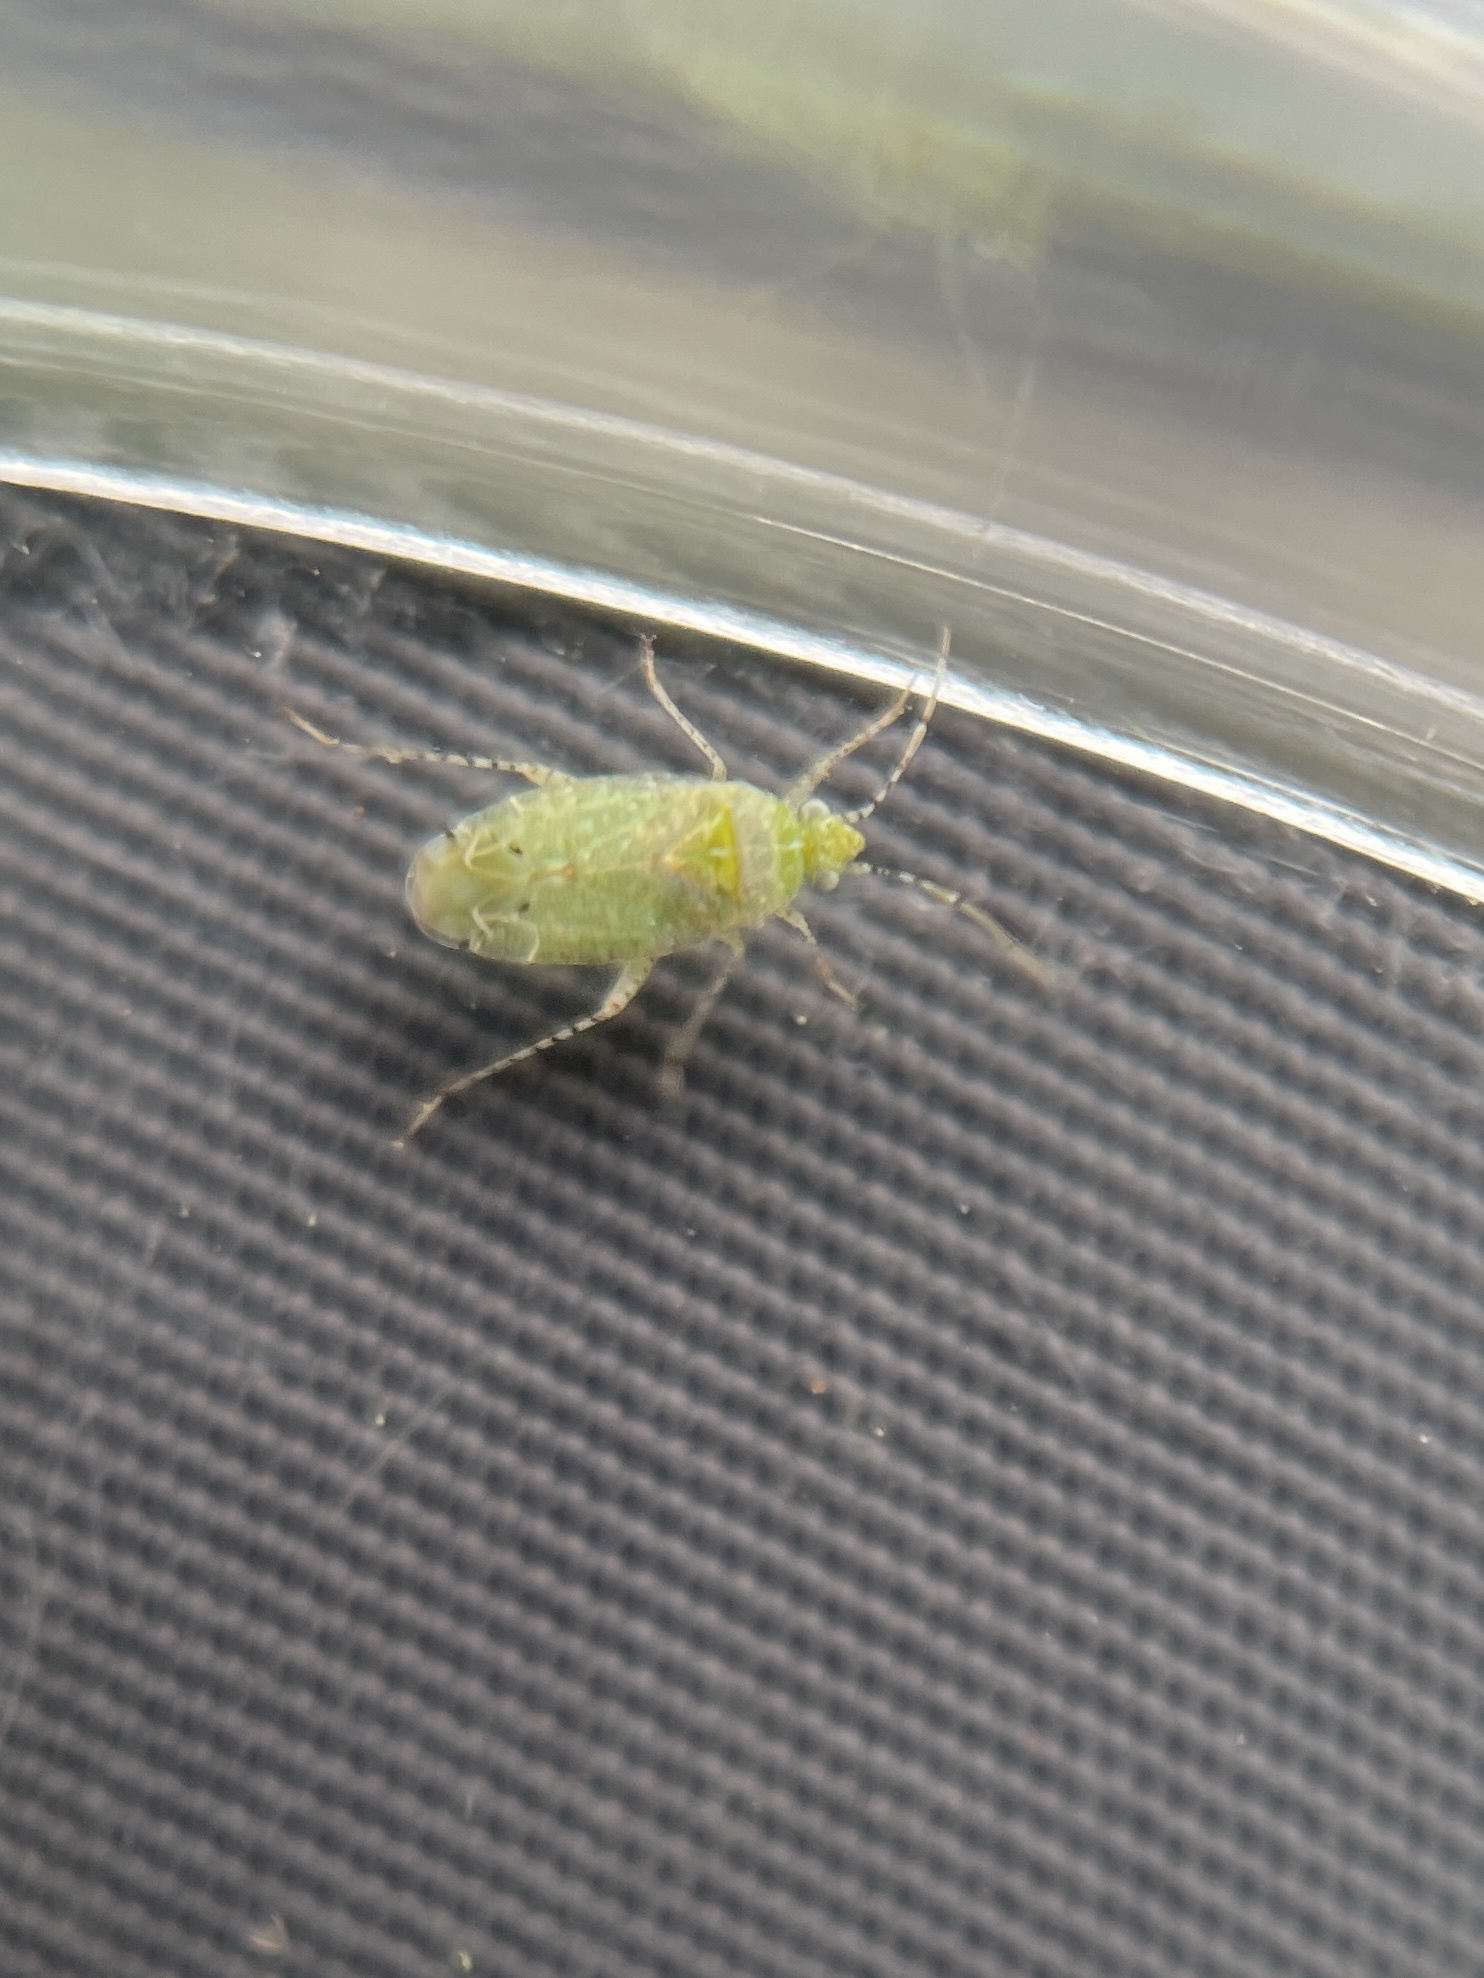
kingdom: Animalia
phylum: Arthropoda
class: Insecta
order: Hemiptera
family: Miridae
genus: Pseudatomoscelis
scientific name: Pseudatomoscelis seriatus
